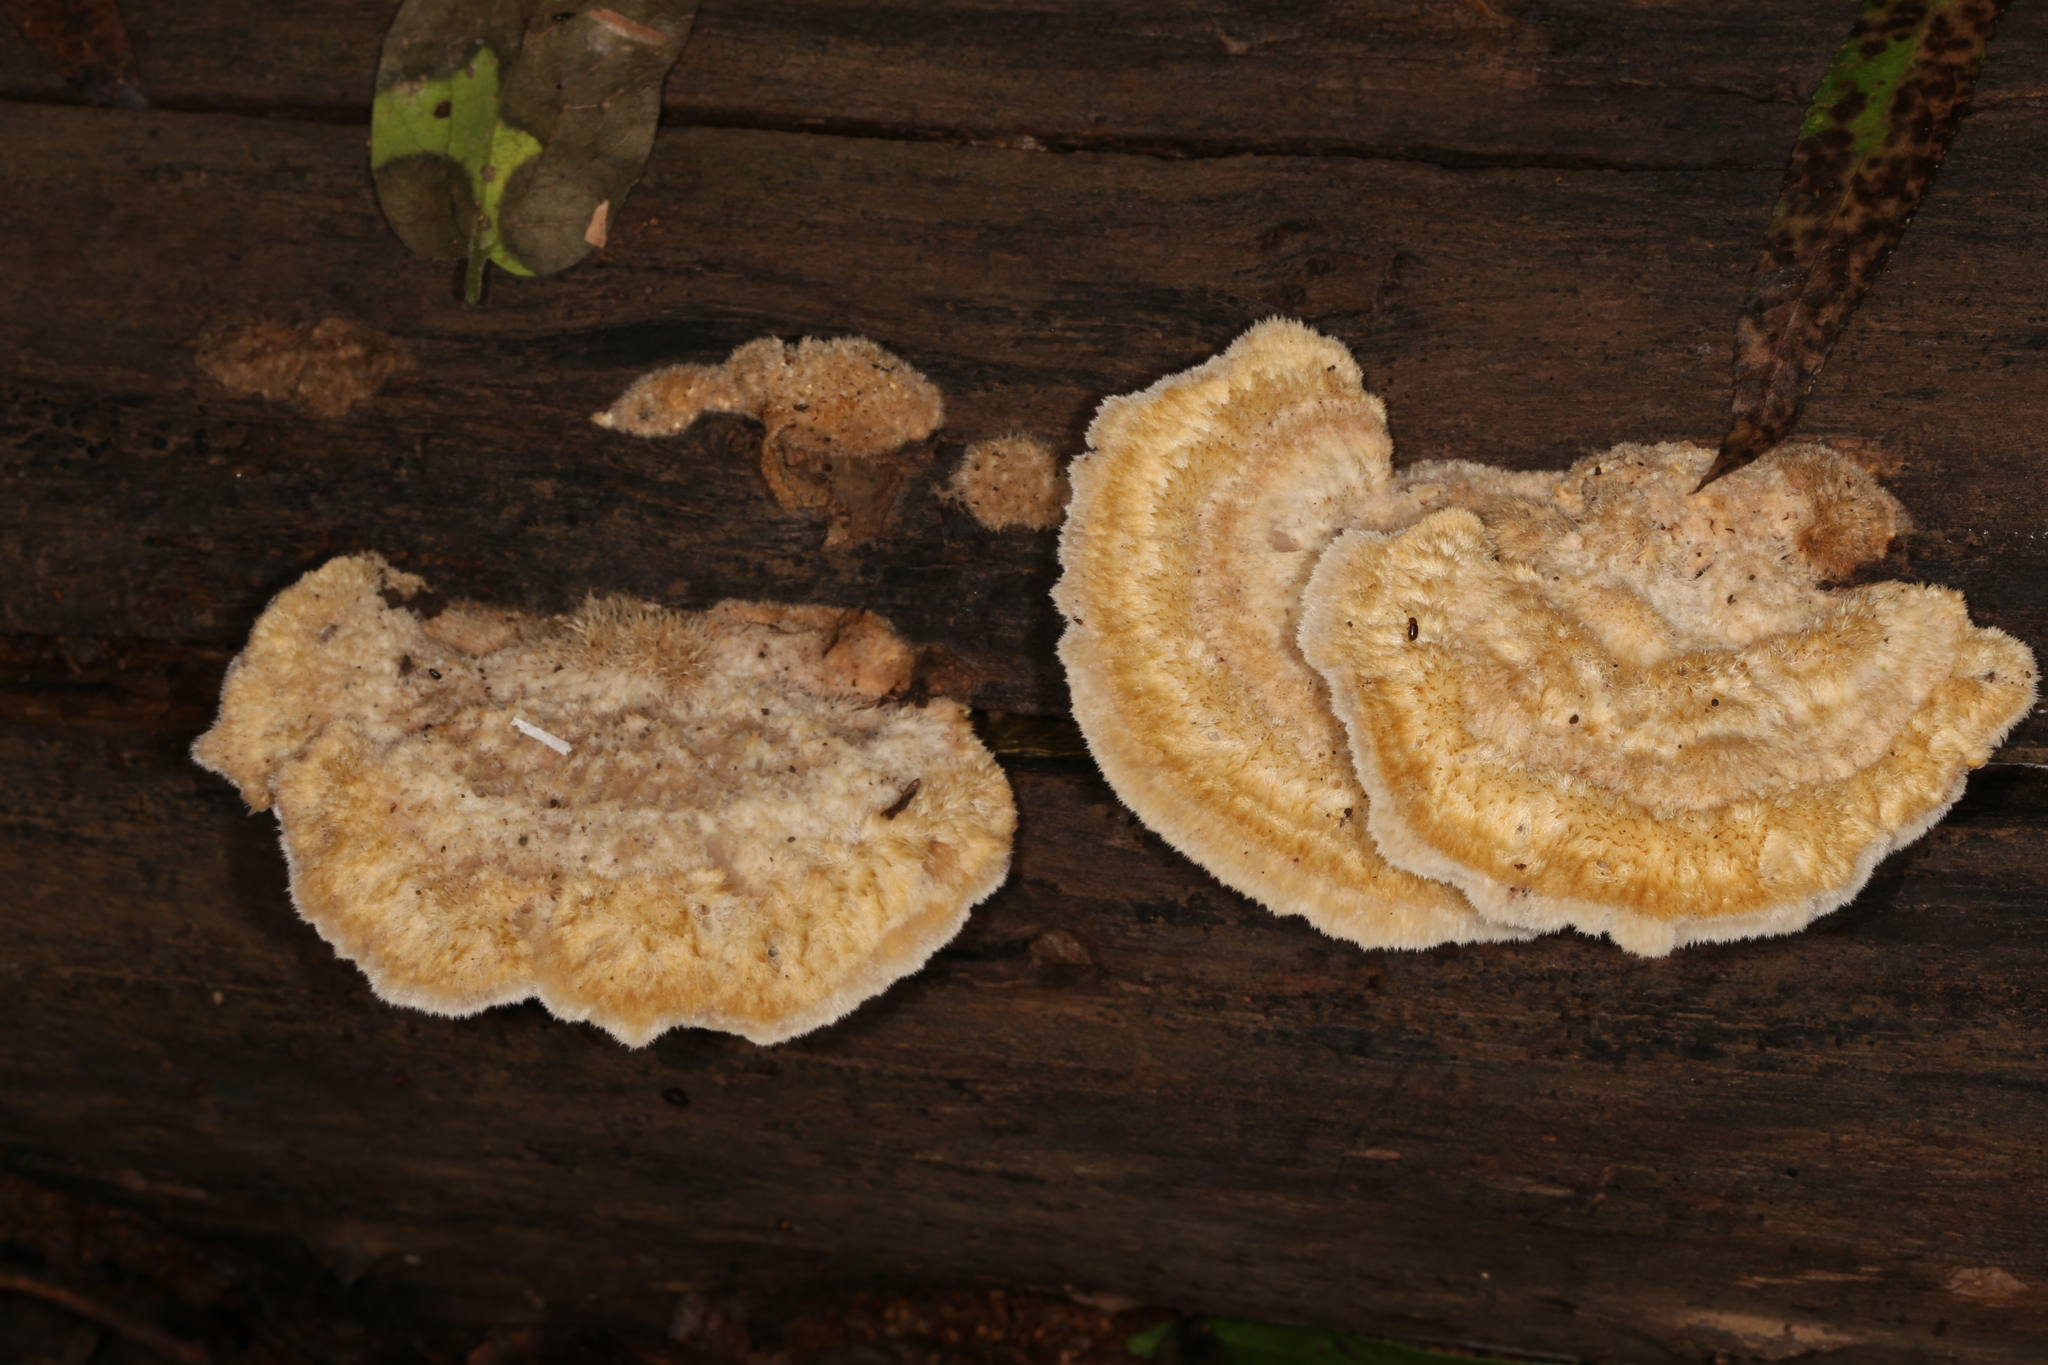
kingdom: Fungi
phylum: Basidiomycota
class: Agaricomycetes
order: Polyporales
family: Polyporaceae
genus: Trametes
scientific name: Trametes trogii
